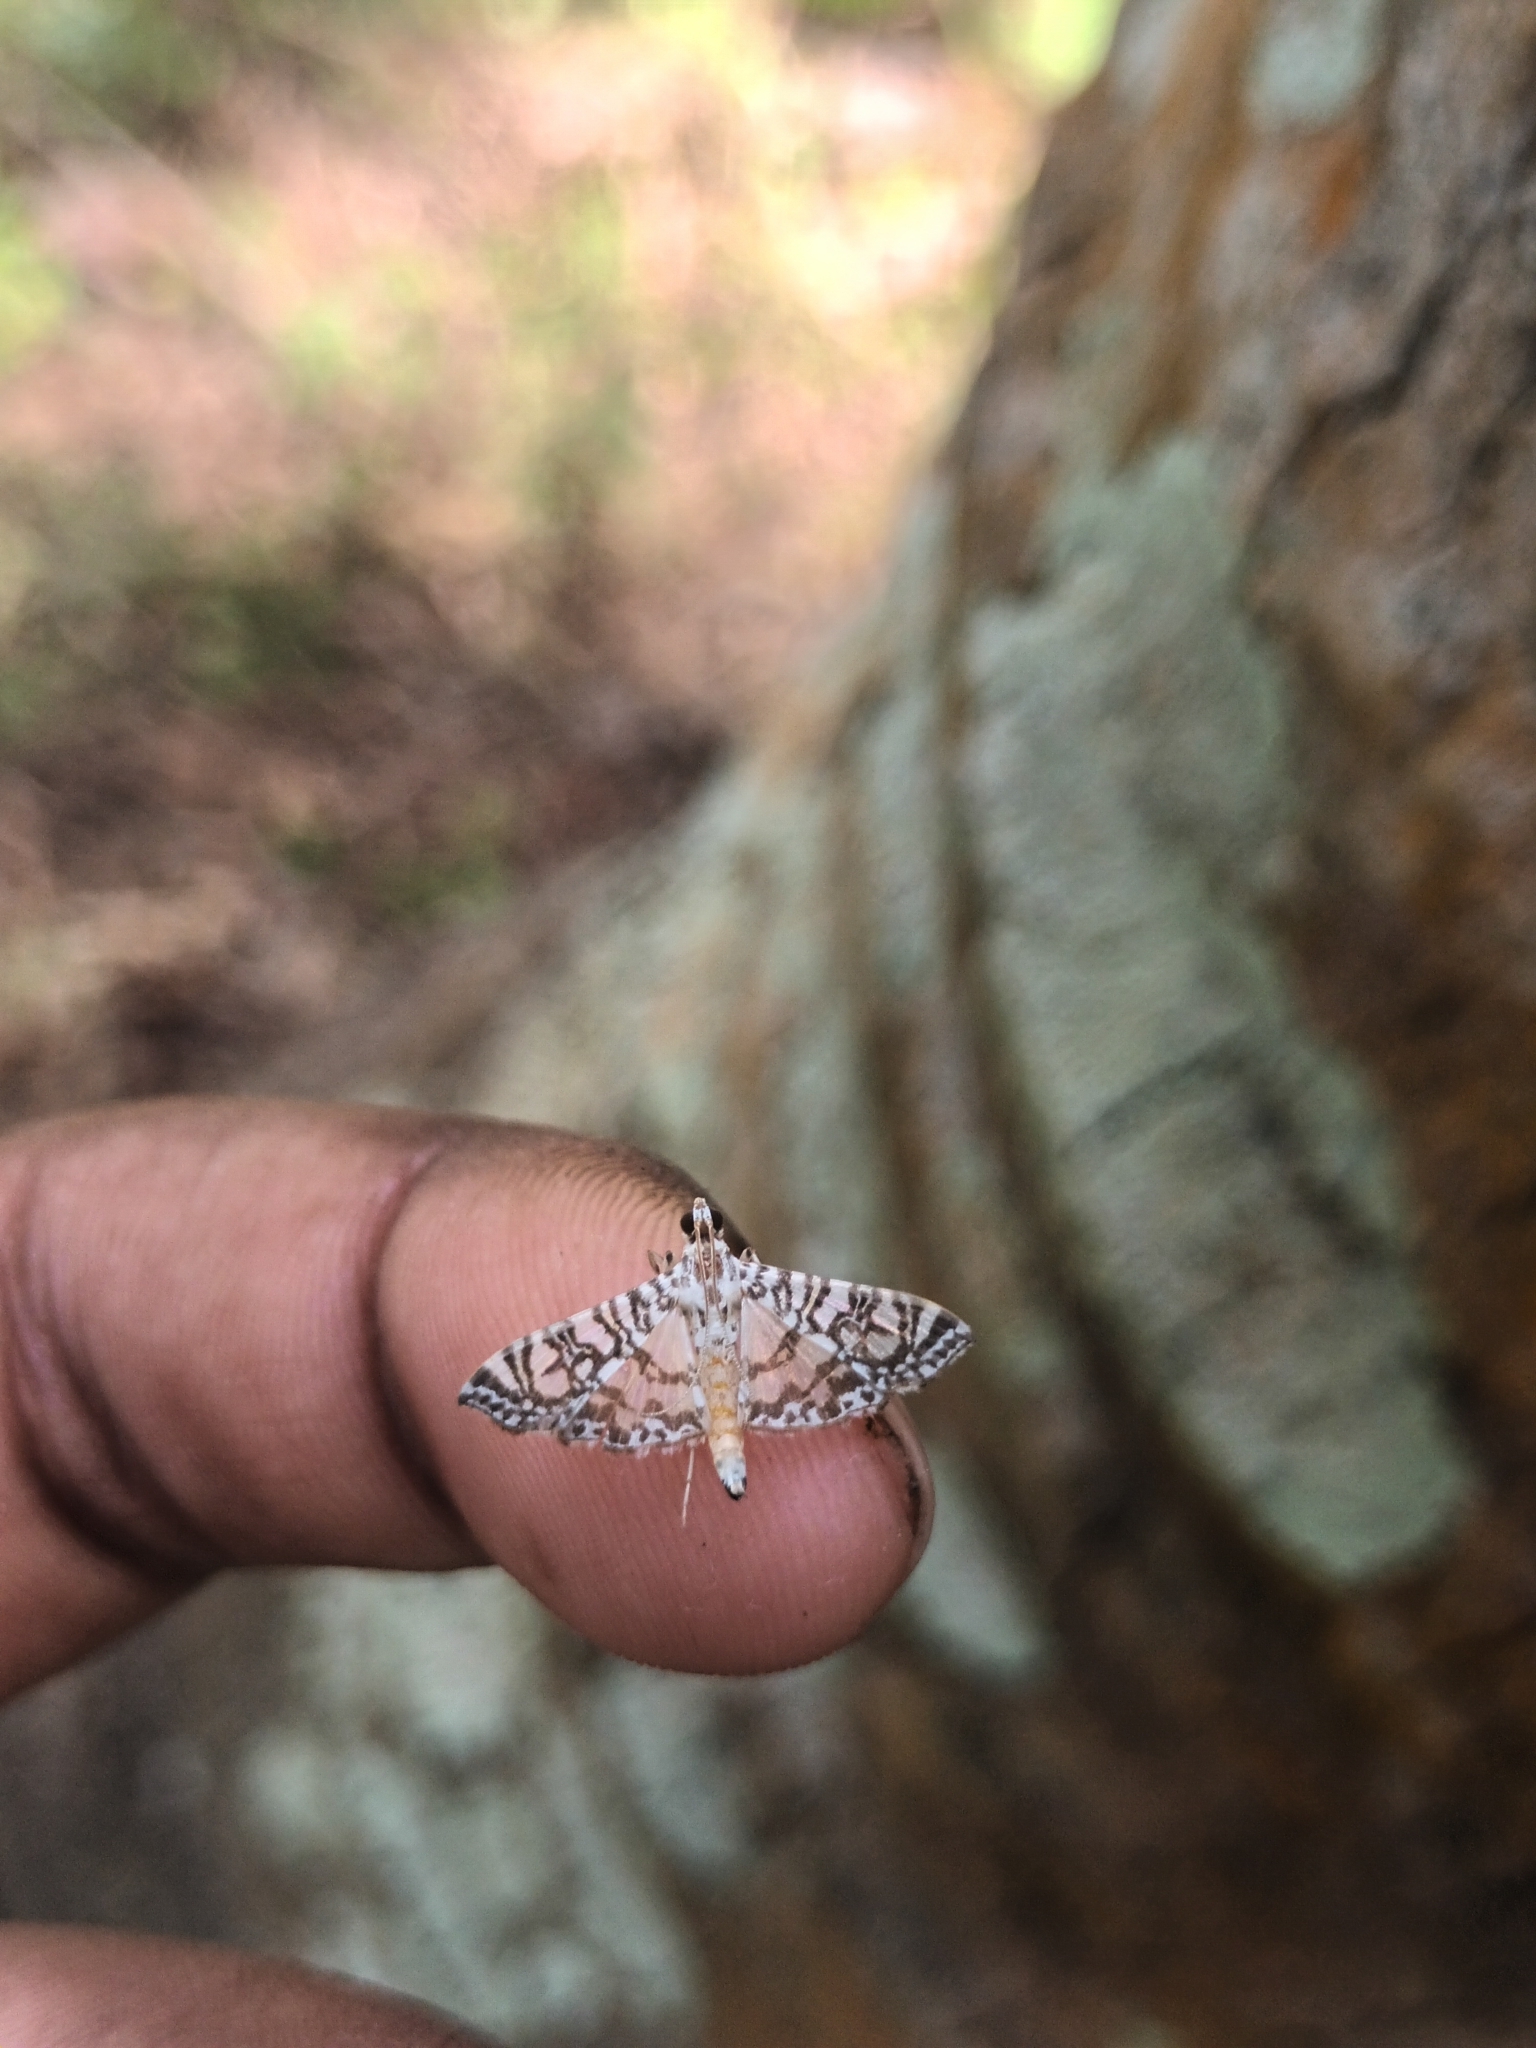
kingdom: Animalia
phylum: Arthropoda
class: Insecta
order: Lepidoptera
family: Crambidae
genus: Glyphodes
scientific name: Glyphodes onychinalis
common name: Swan plant moth
